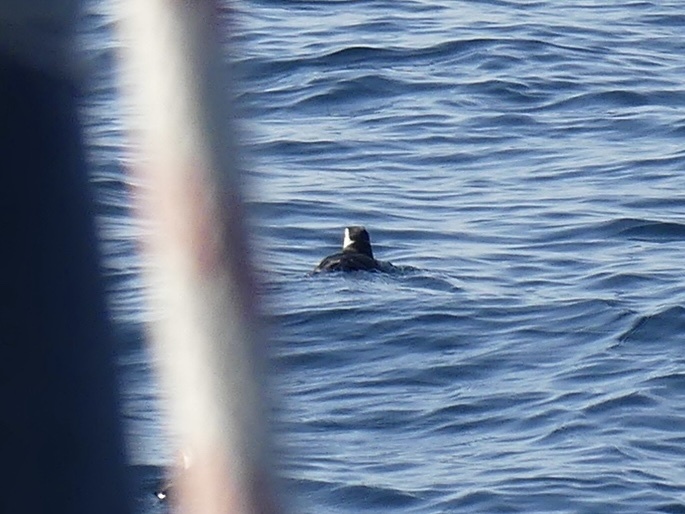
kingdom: Animalia
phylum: Chordata
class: Aves
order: Charadriiformes
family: Alcidae
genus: Fratercula
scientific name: Fratercula arctica
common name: Atlantic puffin
